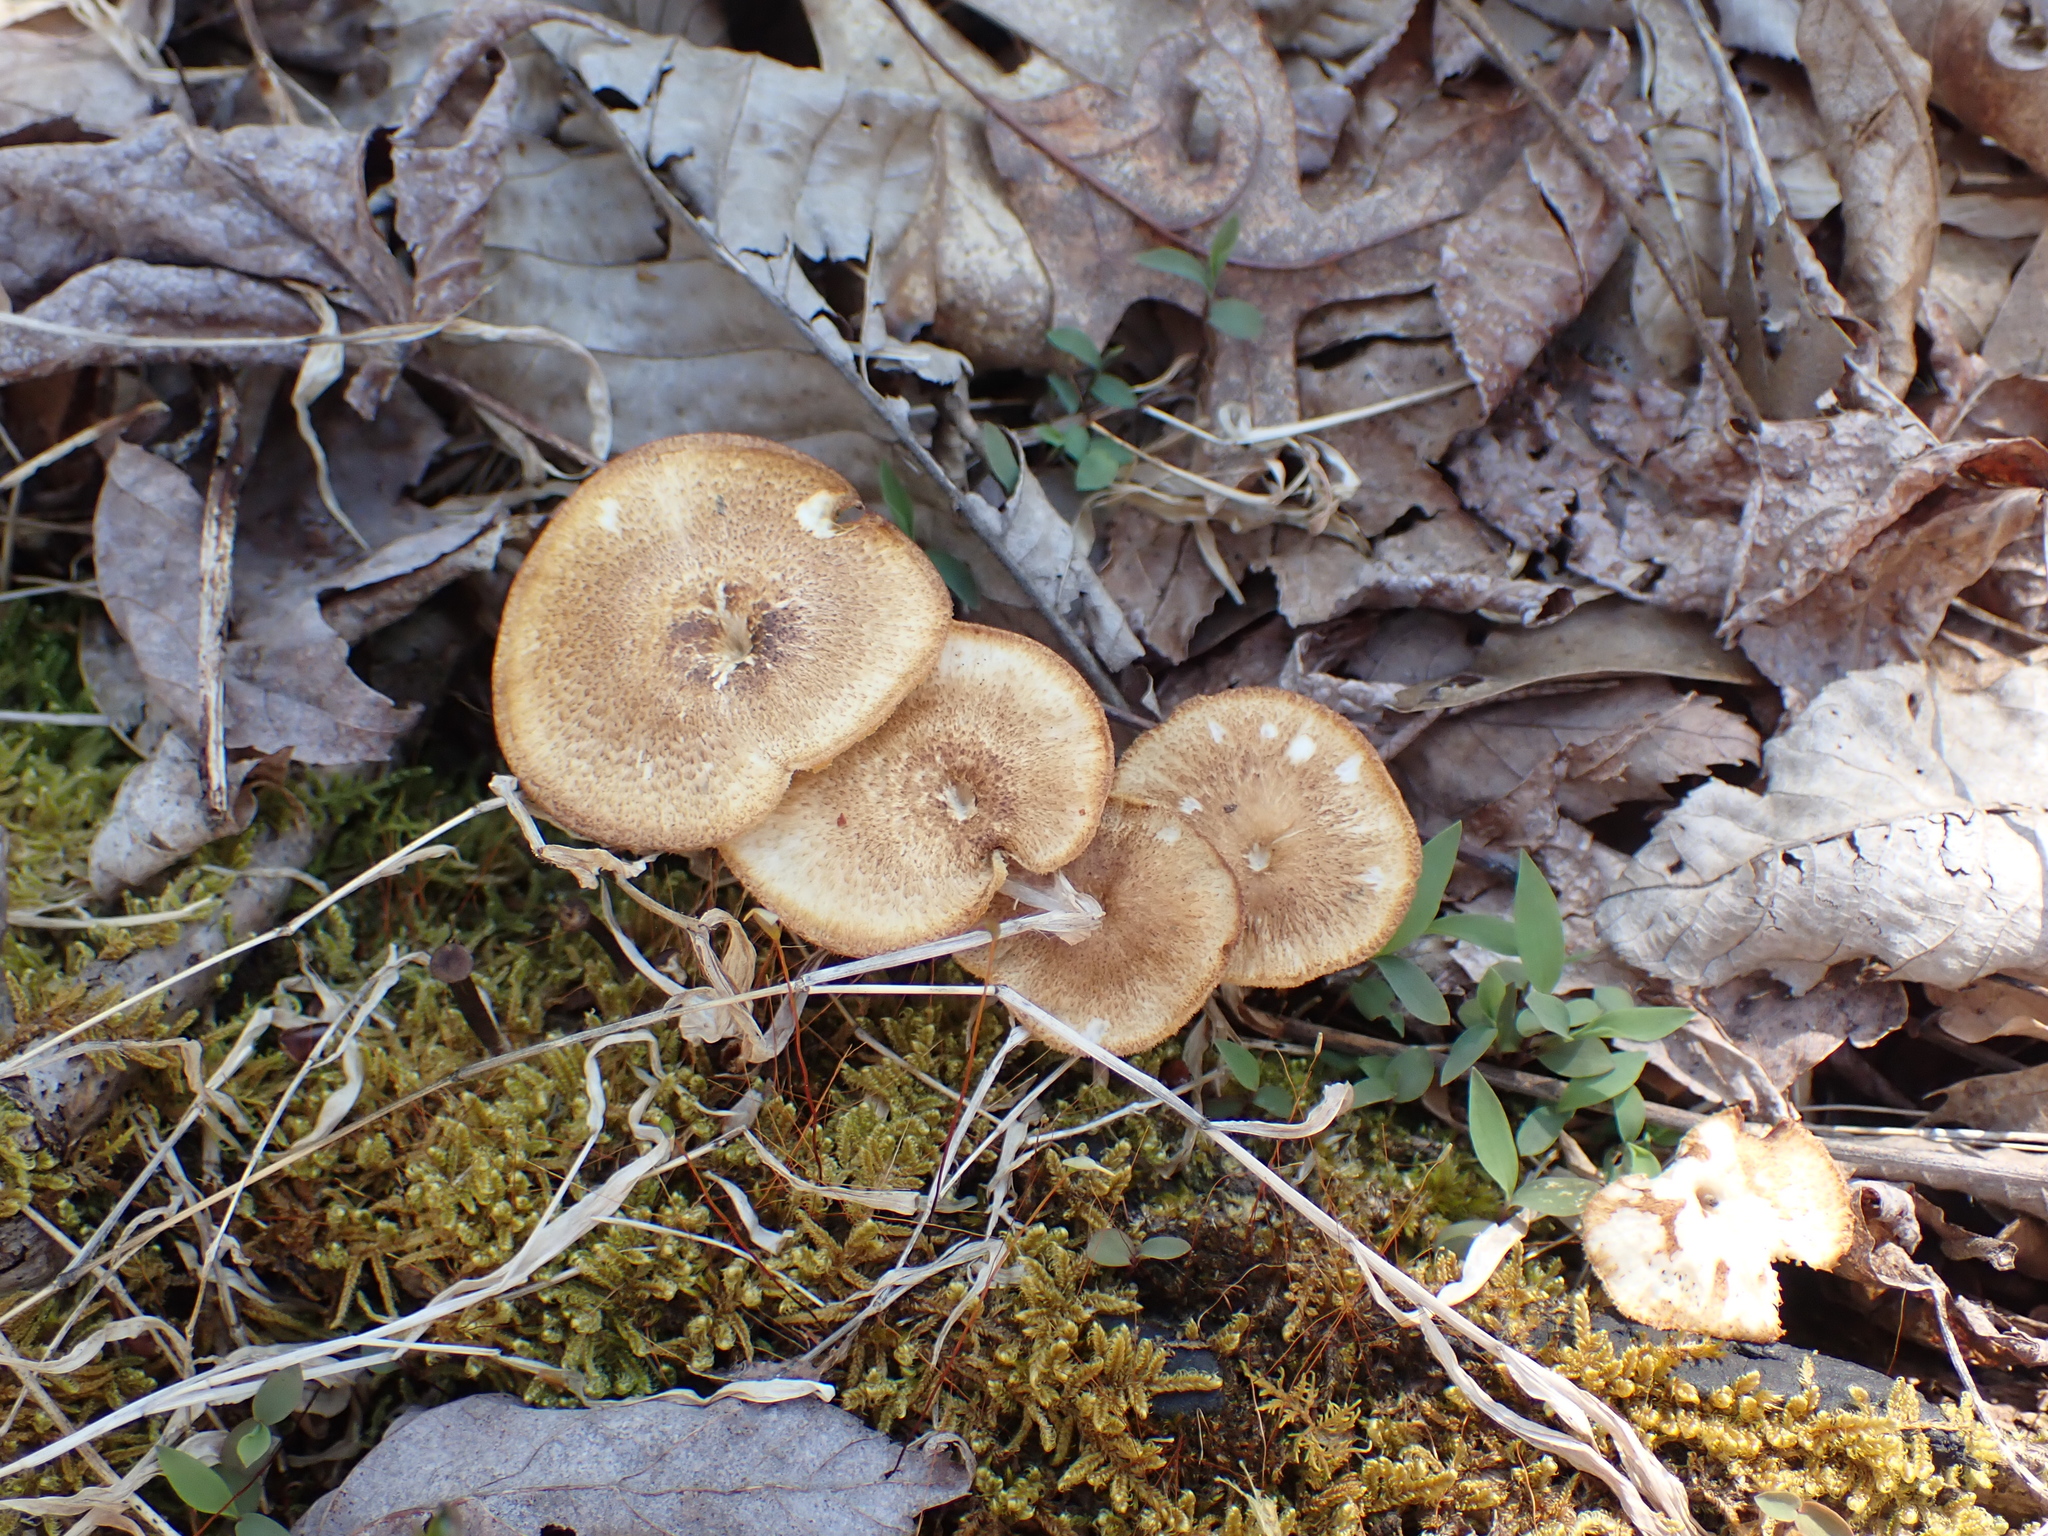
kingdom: Fungi
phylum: Basidiomycota
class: Agaricomycetes
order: Polyporales
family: Polyporaceae
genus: Lentinus
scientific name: Lentinus arcularius
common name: Spring polypore
